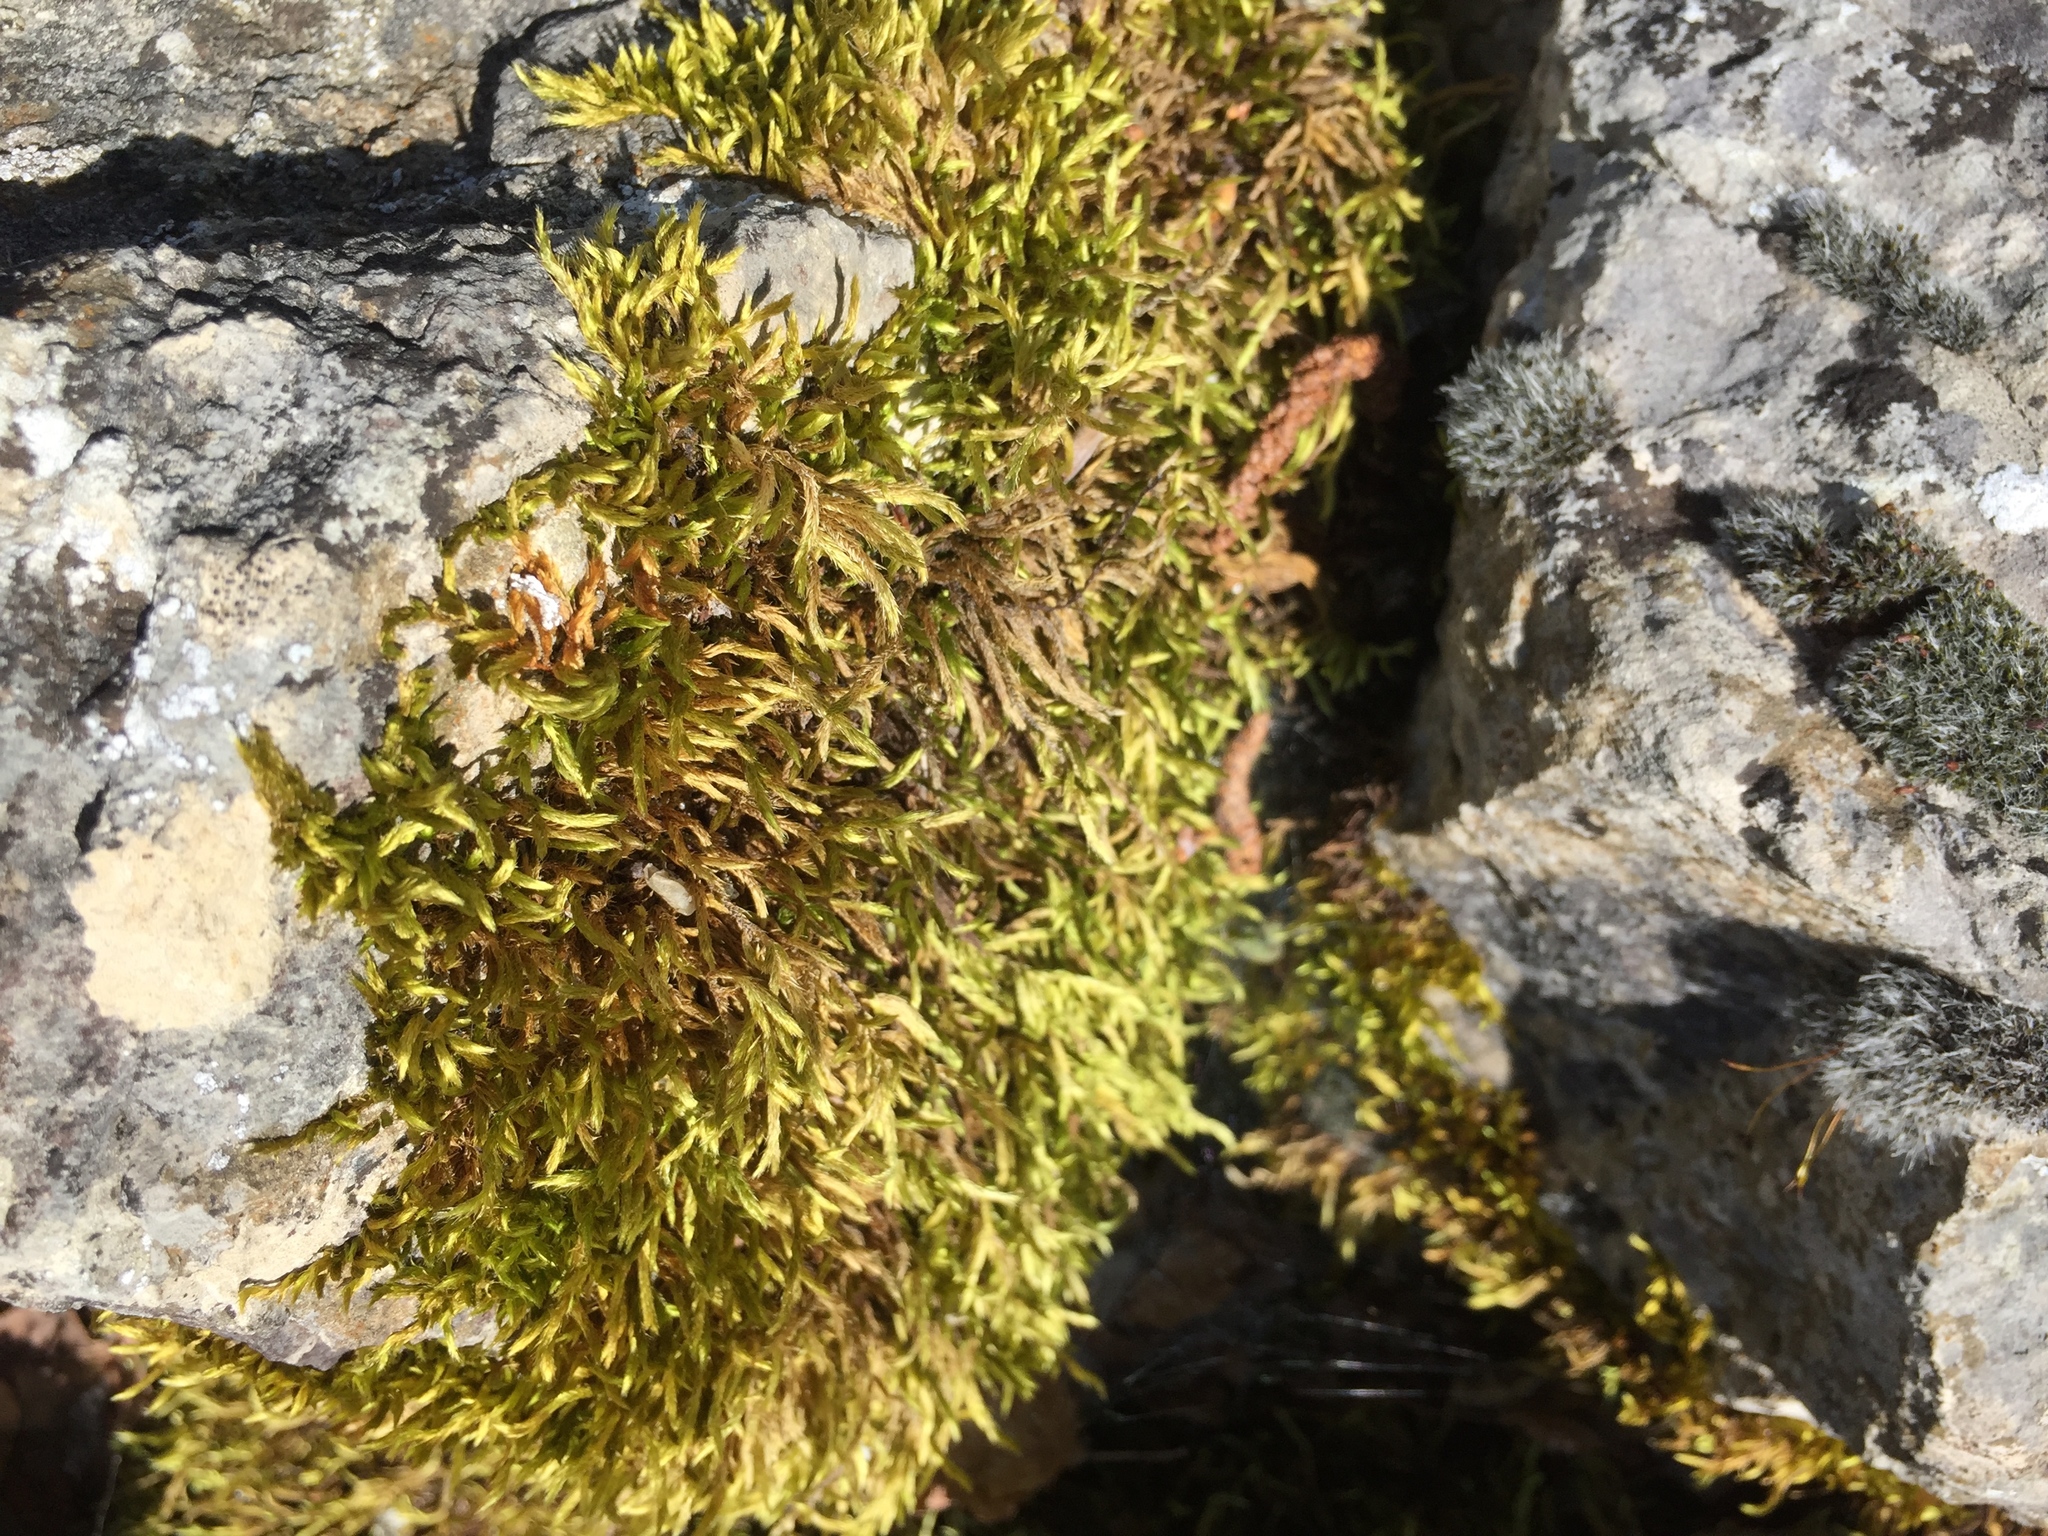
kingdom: Plantae
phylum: Bryophyta
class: Bryopsida
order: Hypnales
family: Brachytheciaceae
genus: Homalothecium
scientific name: Homalothecium sericeum
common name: Silky wall feather-moss
